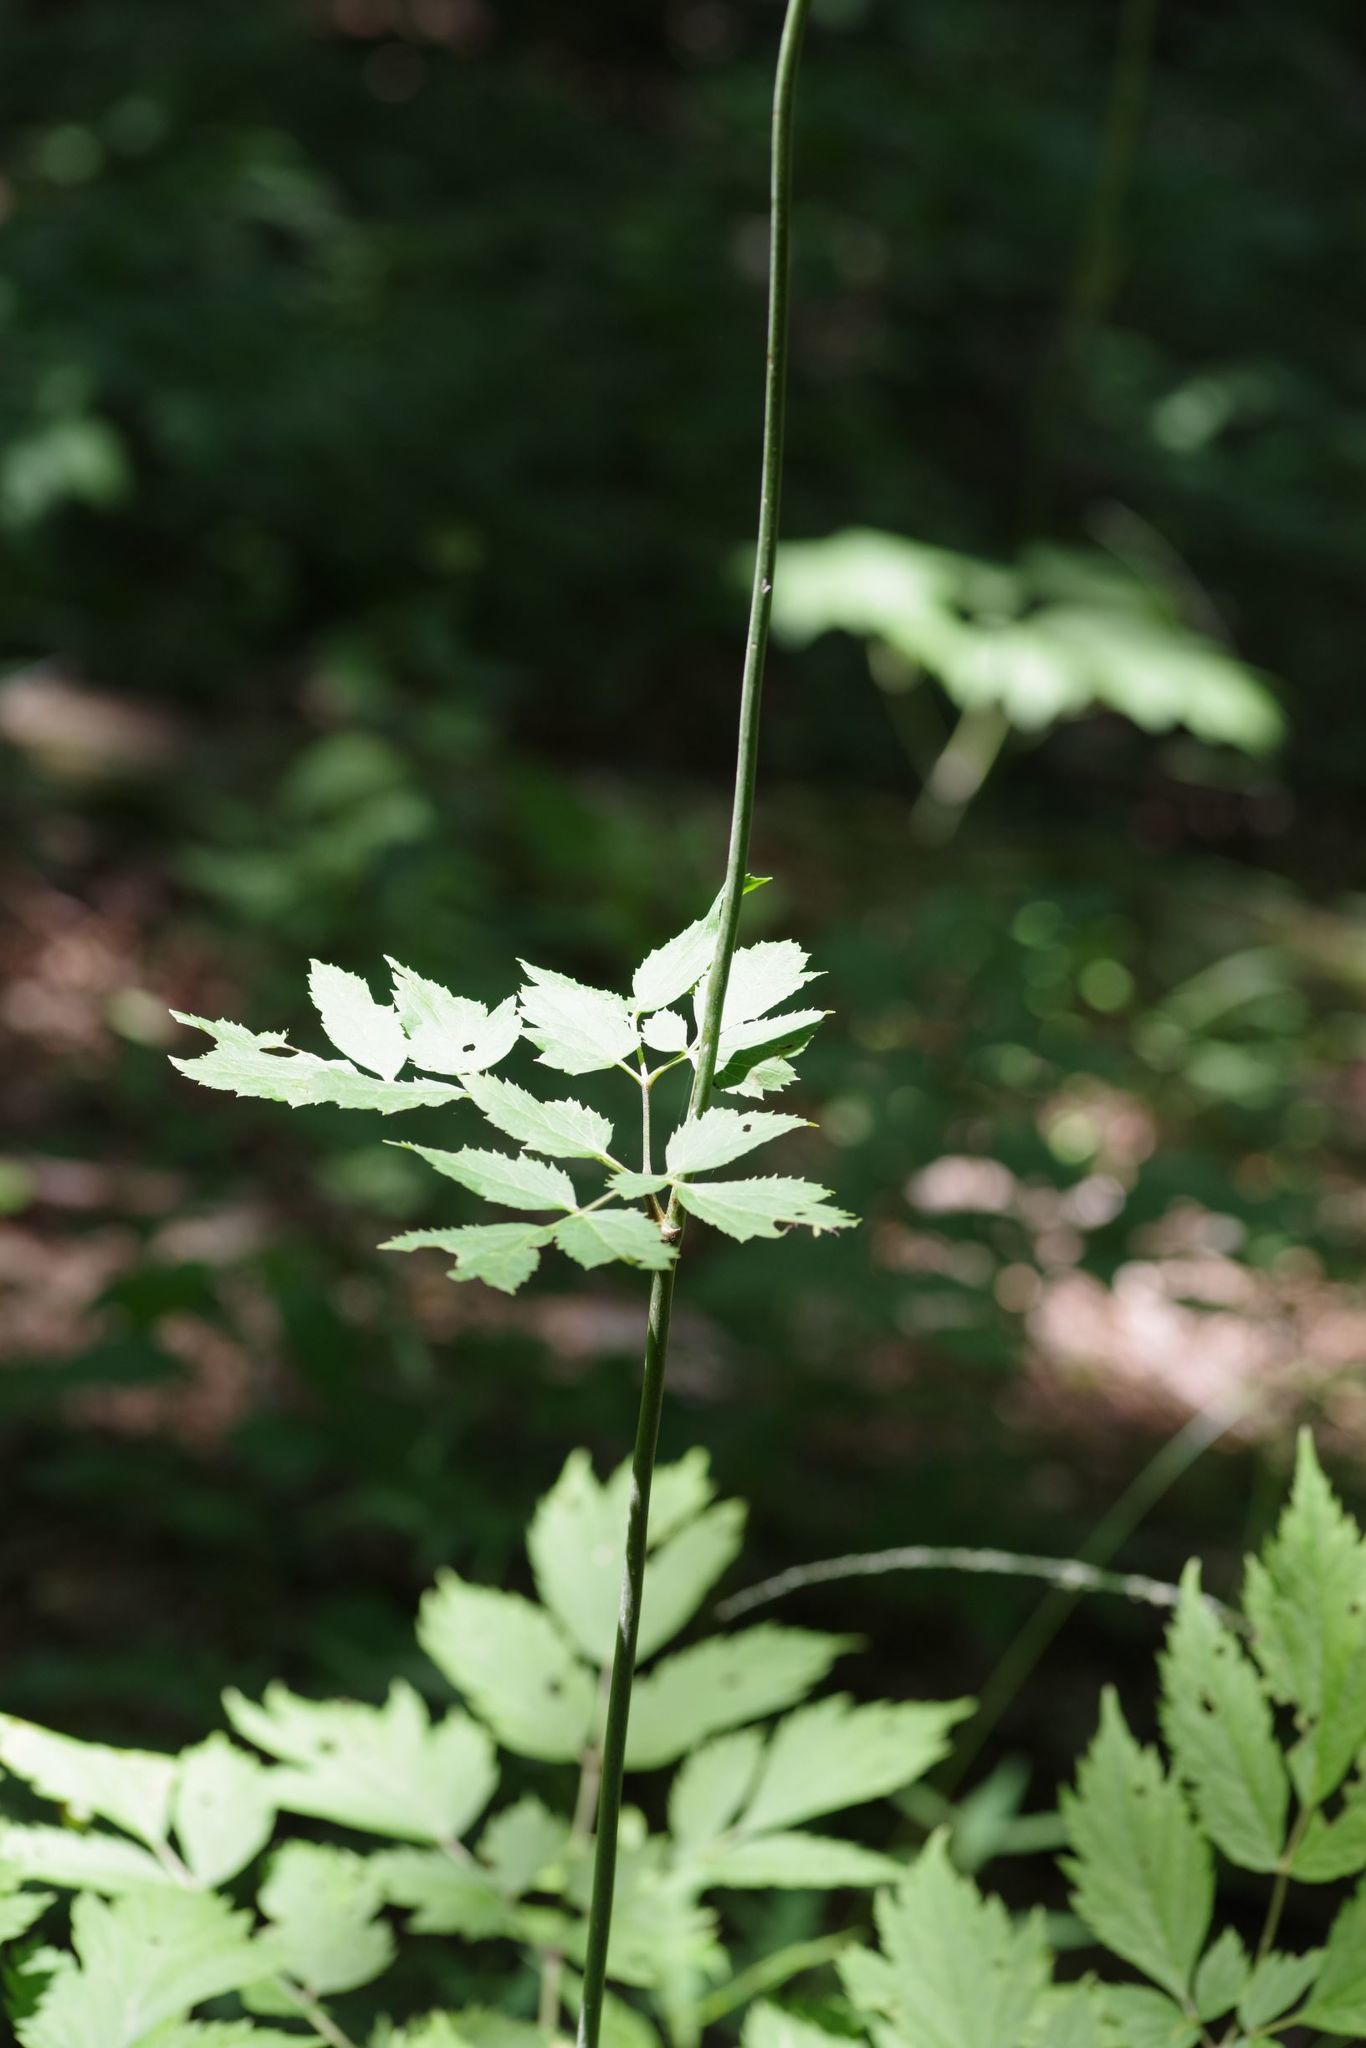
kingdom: Plantae
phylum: Tracheophyta
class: Magnoliopsida
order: Ranunculales
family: Ranunculaceae
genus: Actaea
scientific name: Actaea racemosa
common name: Black cohosh
